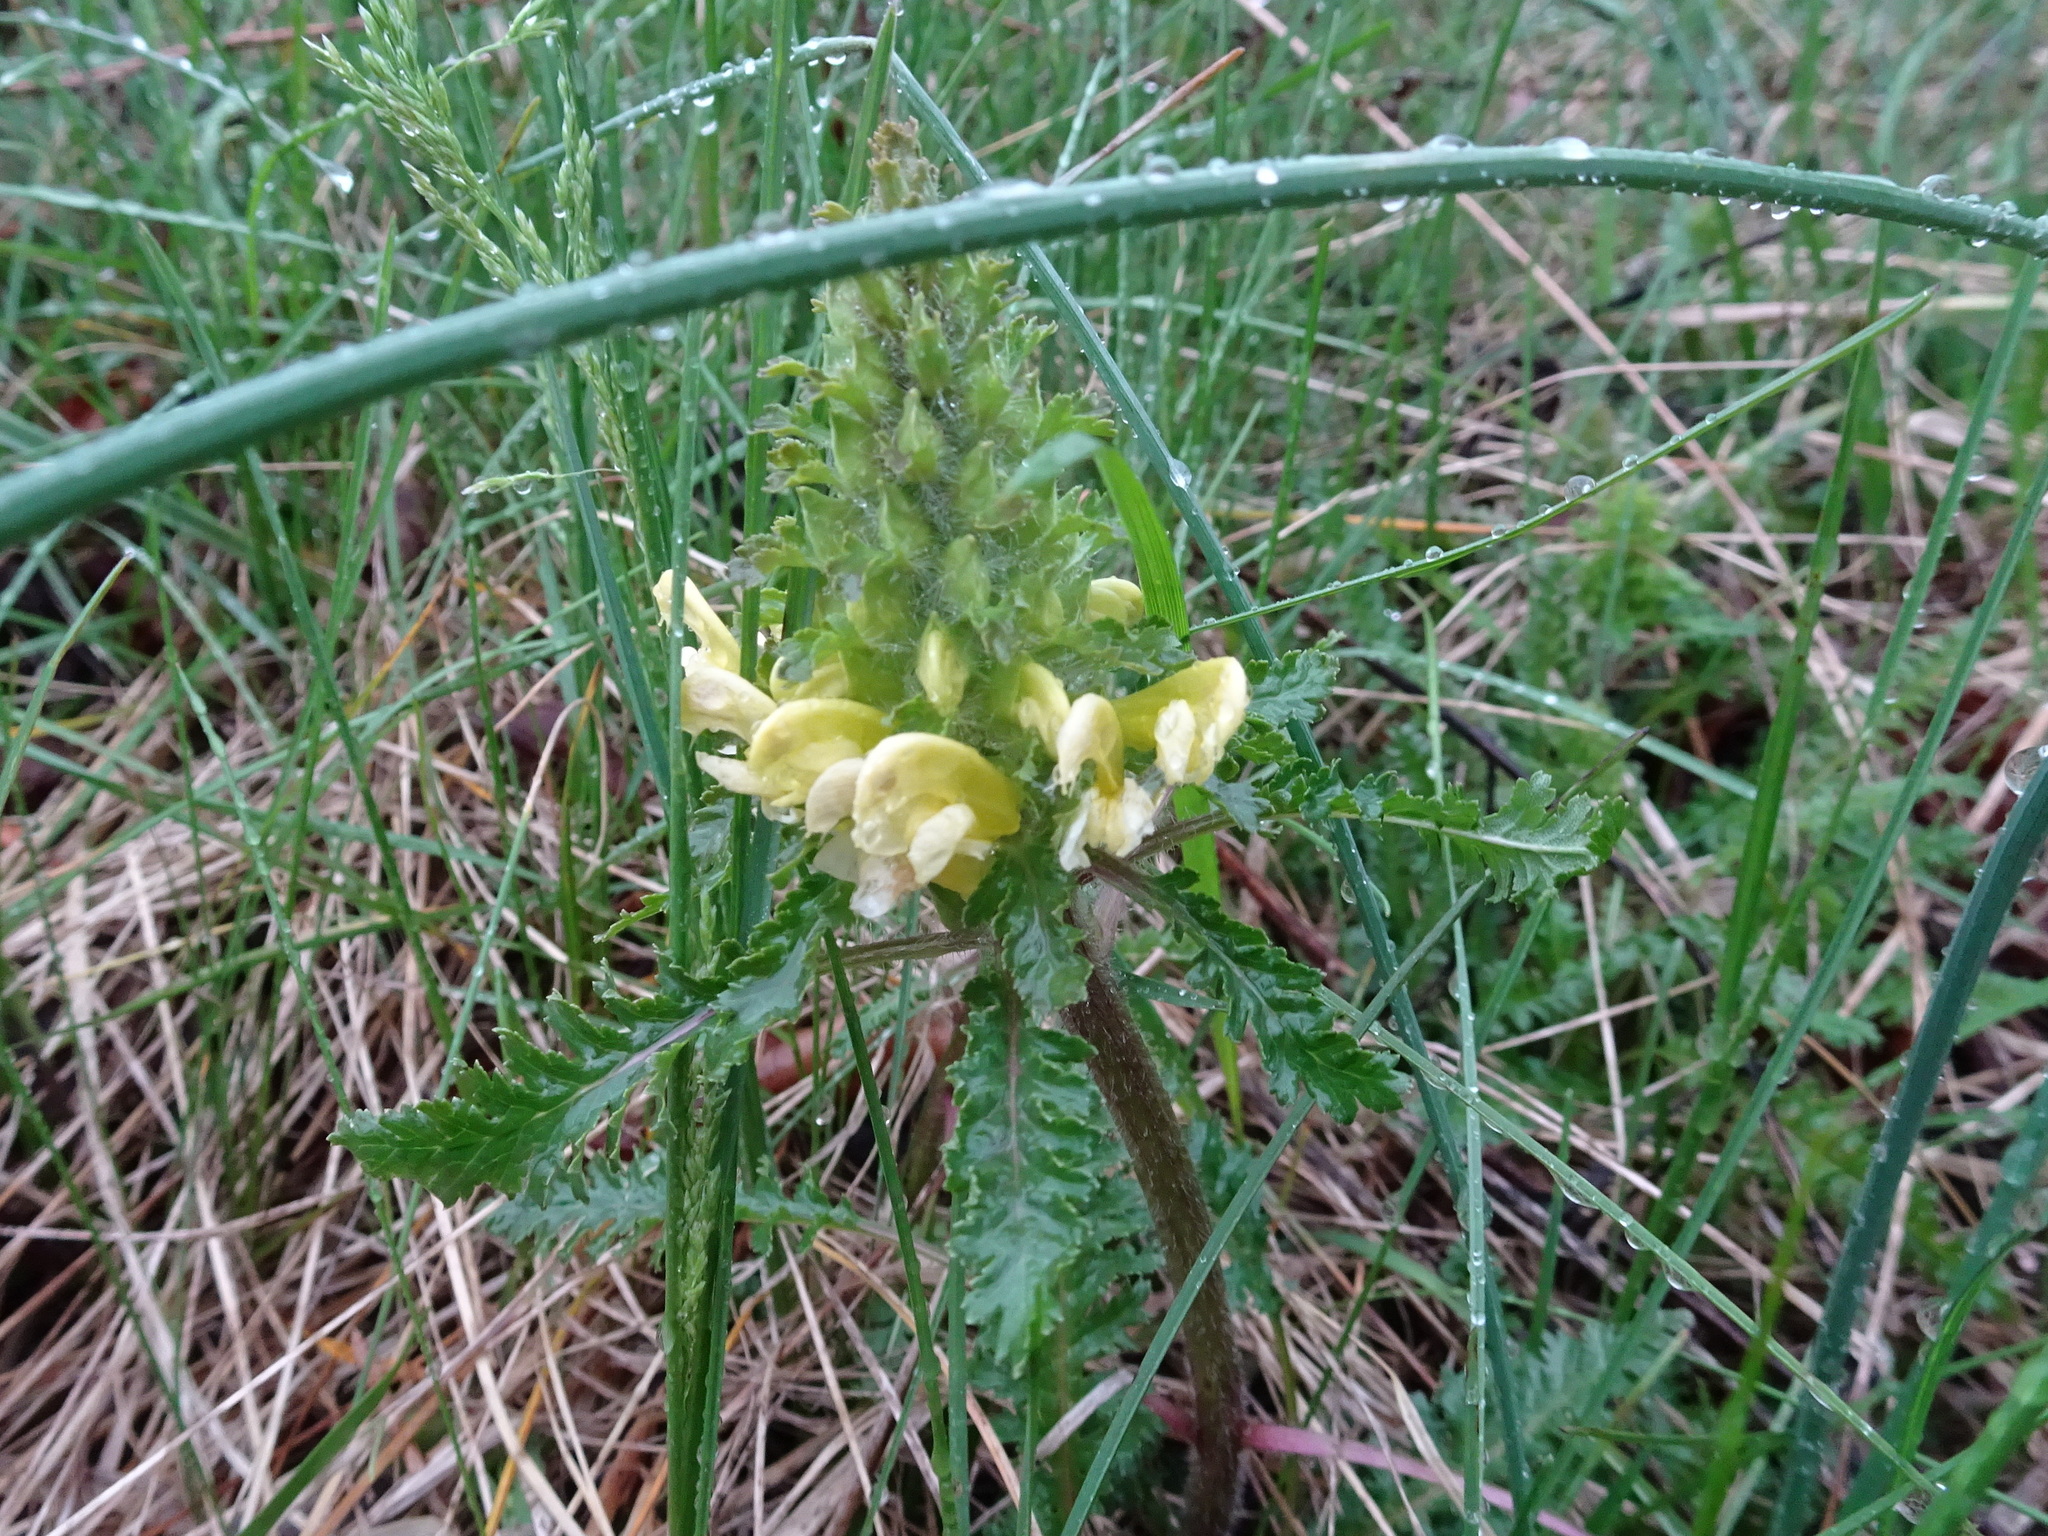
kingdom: Plantae
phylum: Tracheophyta
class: Magnoliopsida
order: Lamiales
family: Orobanchaceae
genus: Pedicularis
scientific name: Pedicularis canadensis
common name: Early lousewort
